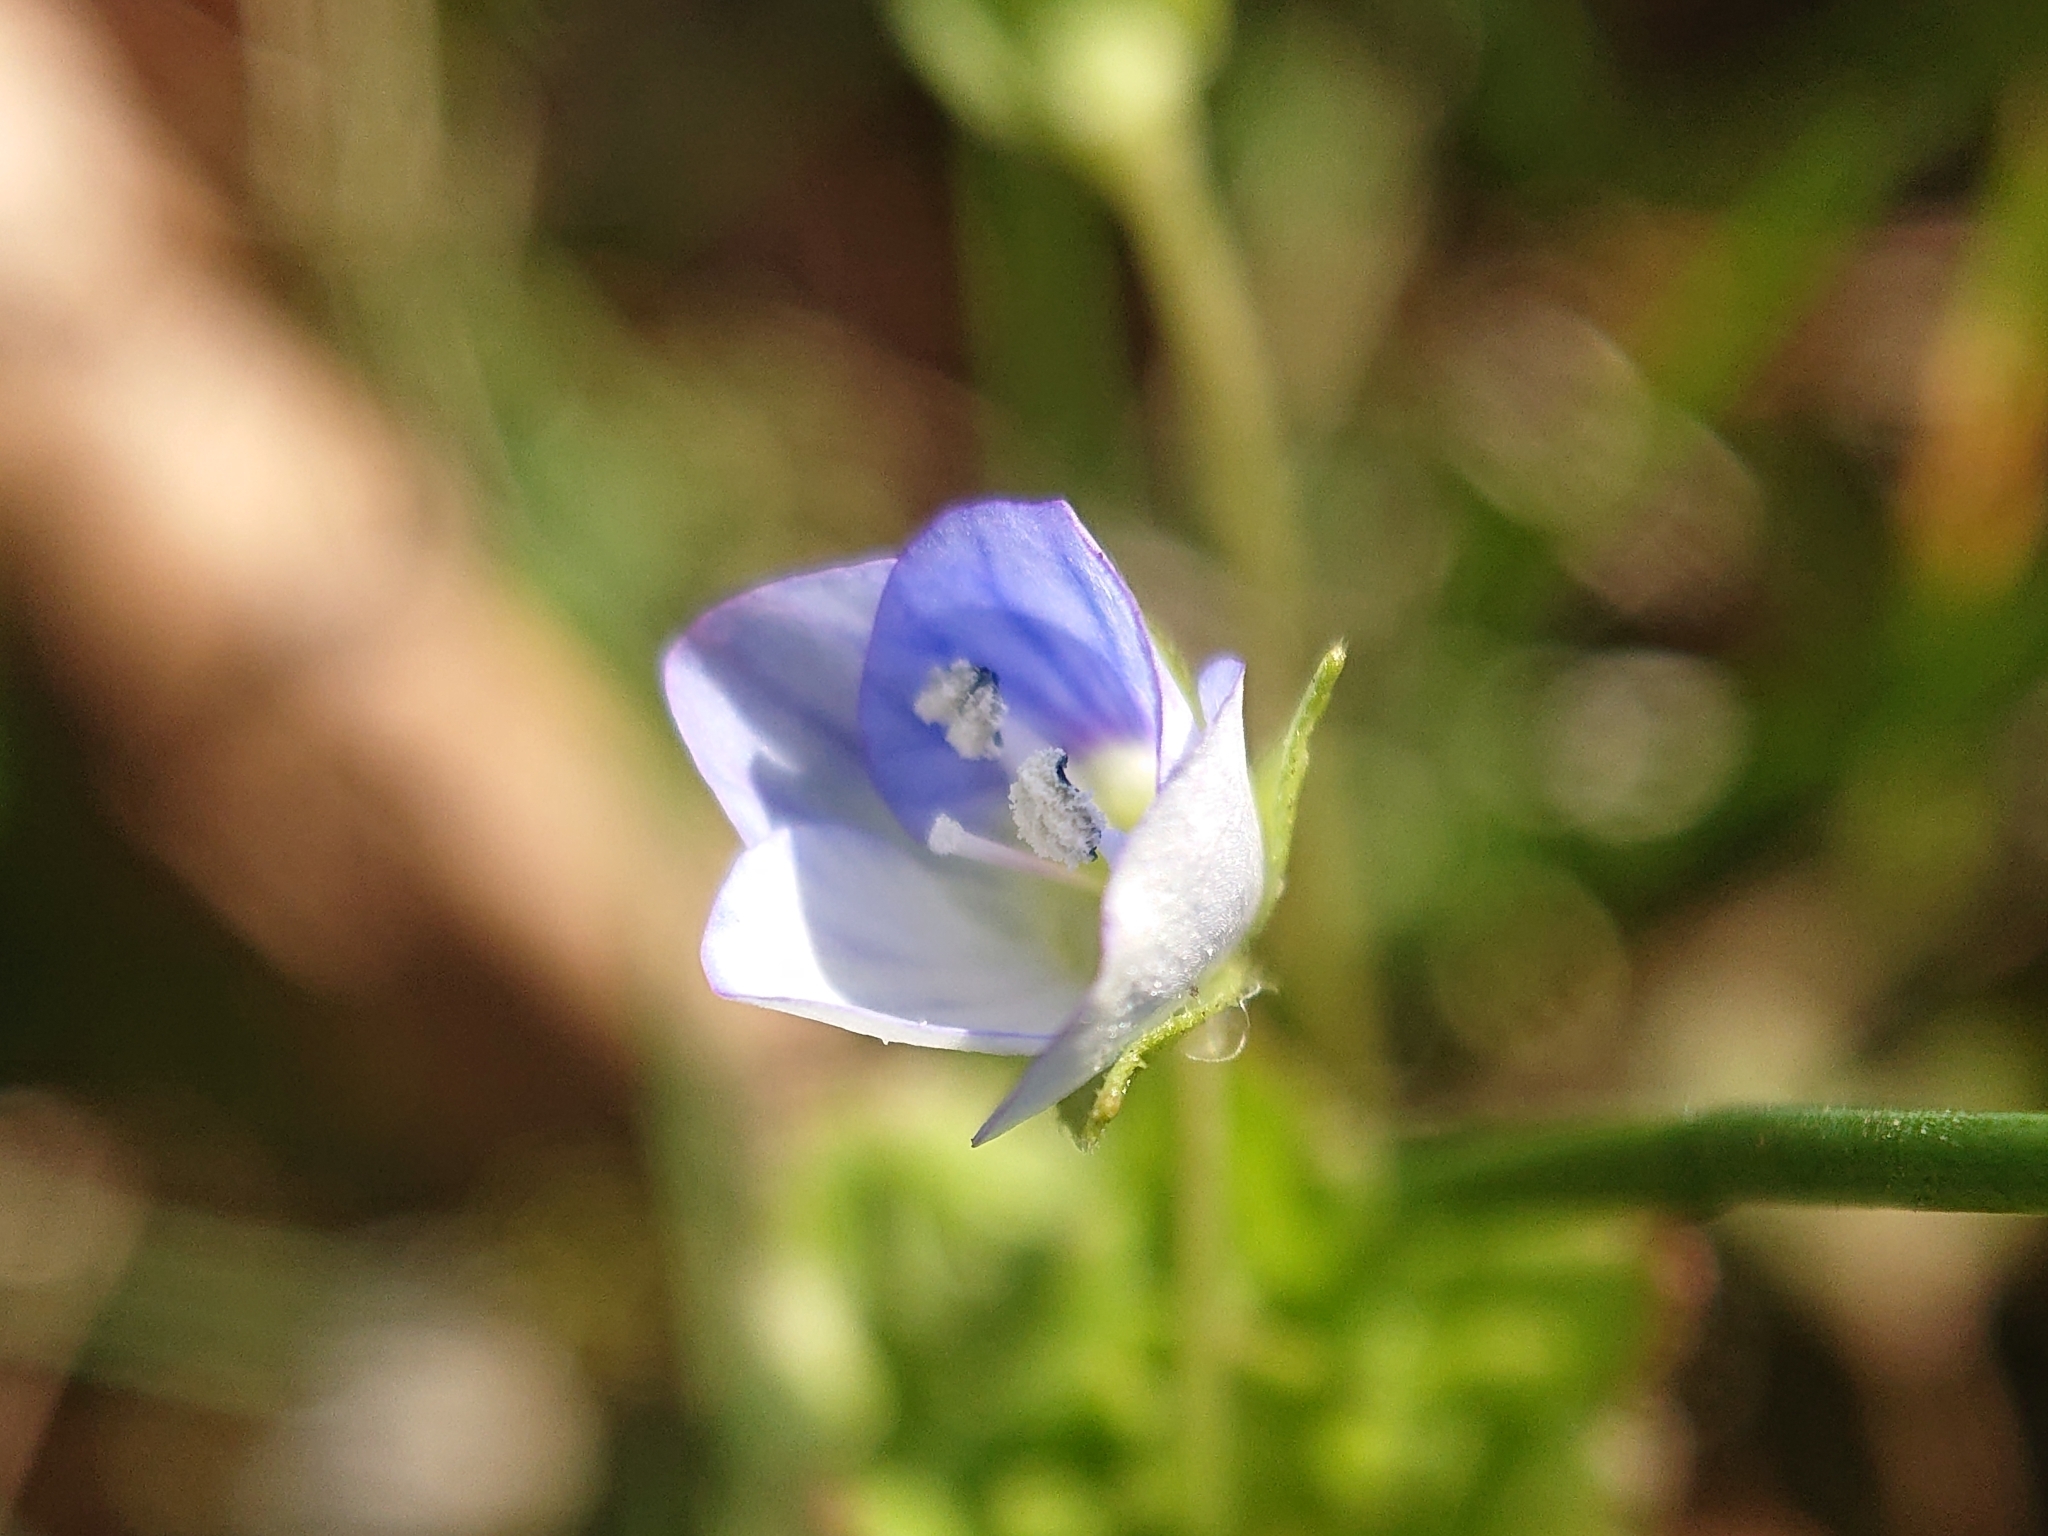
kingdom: Plantae
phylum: Tracheophyta
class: Magnoliopsida
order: Lamiales
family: Plantaginaceae
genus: Veronica
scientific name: Veronica persica
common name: Common field-speedwell
